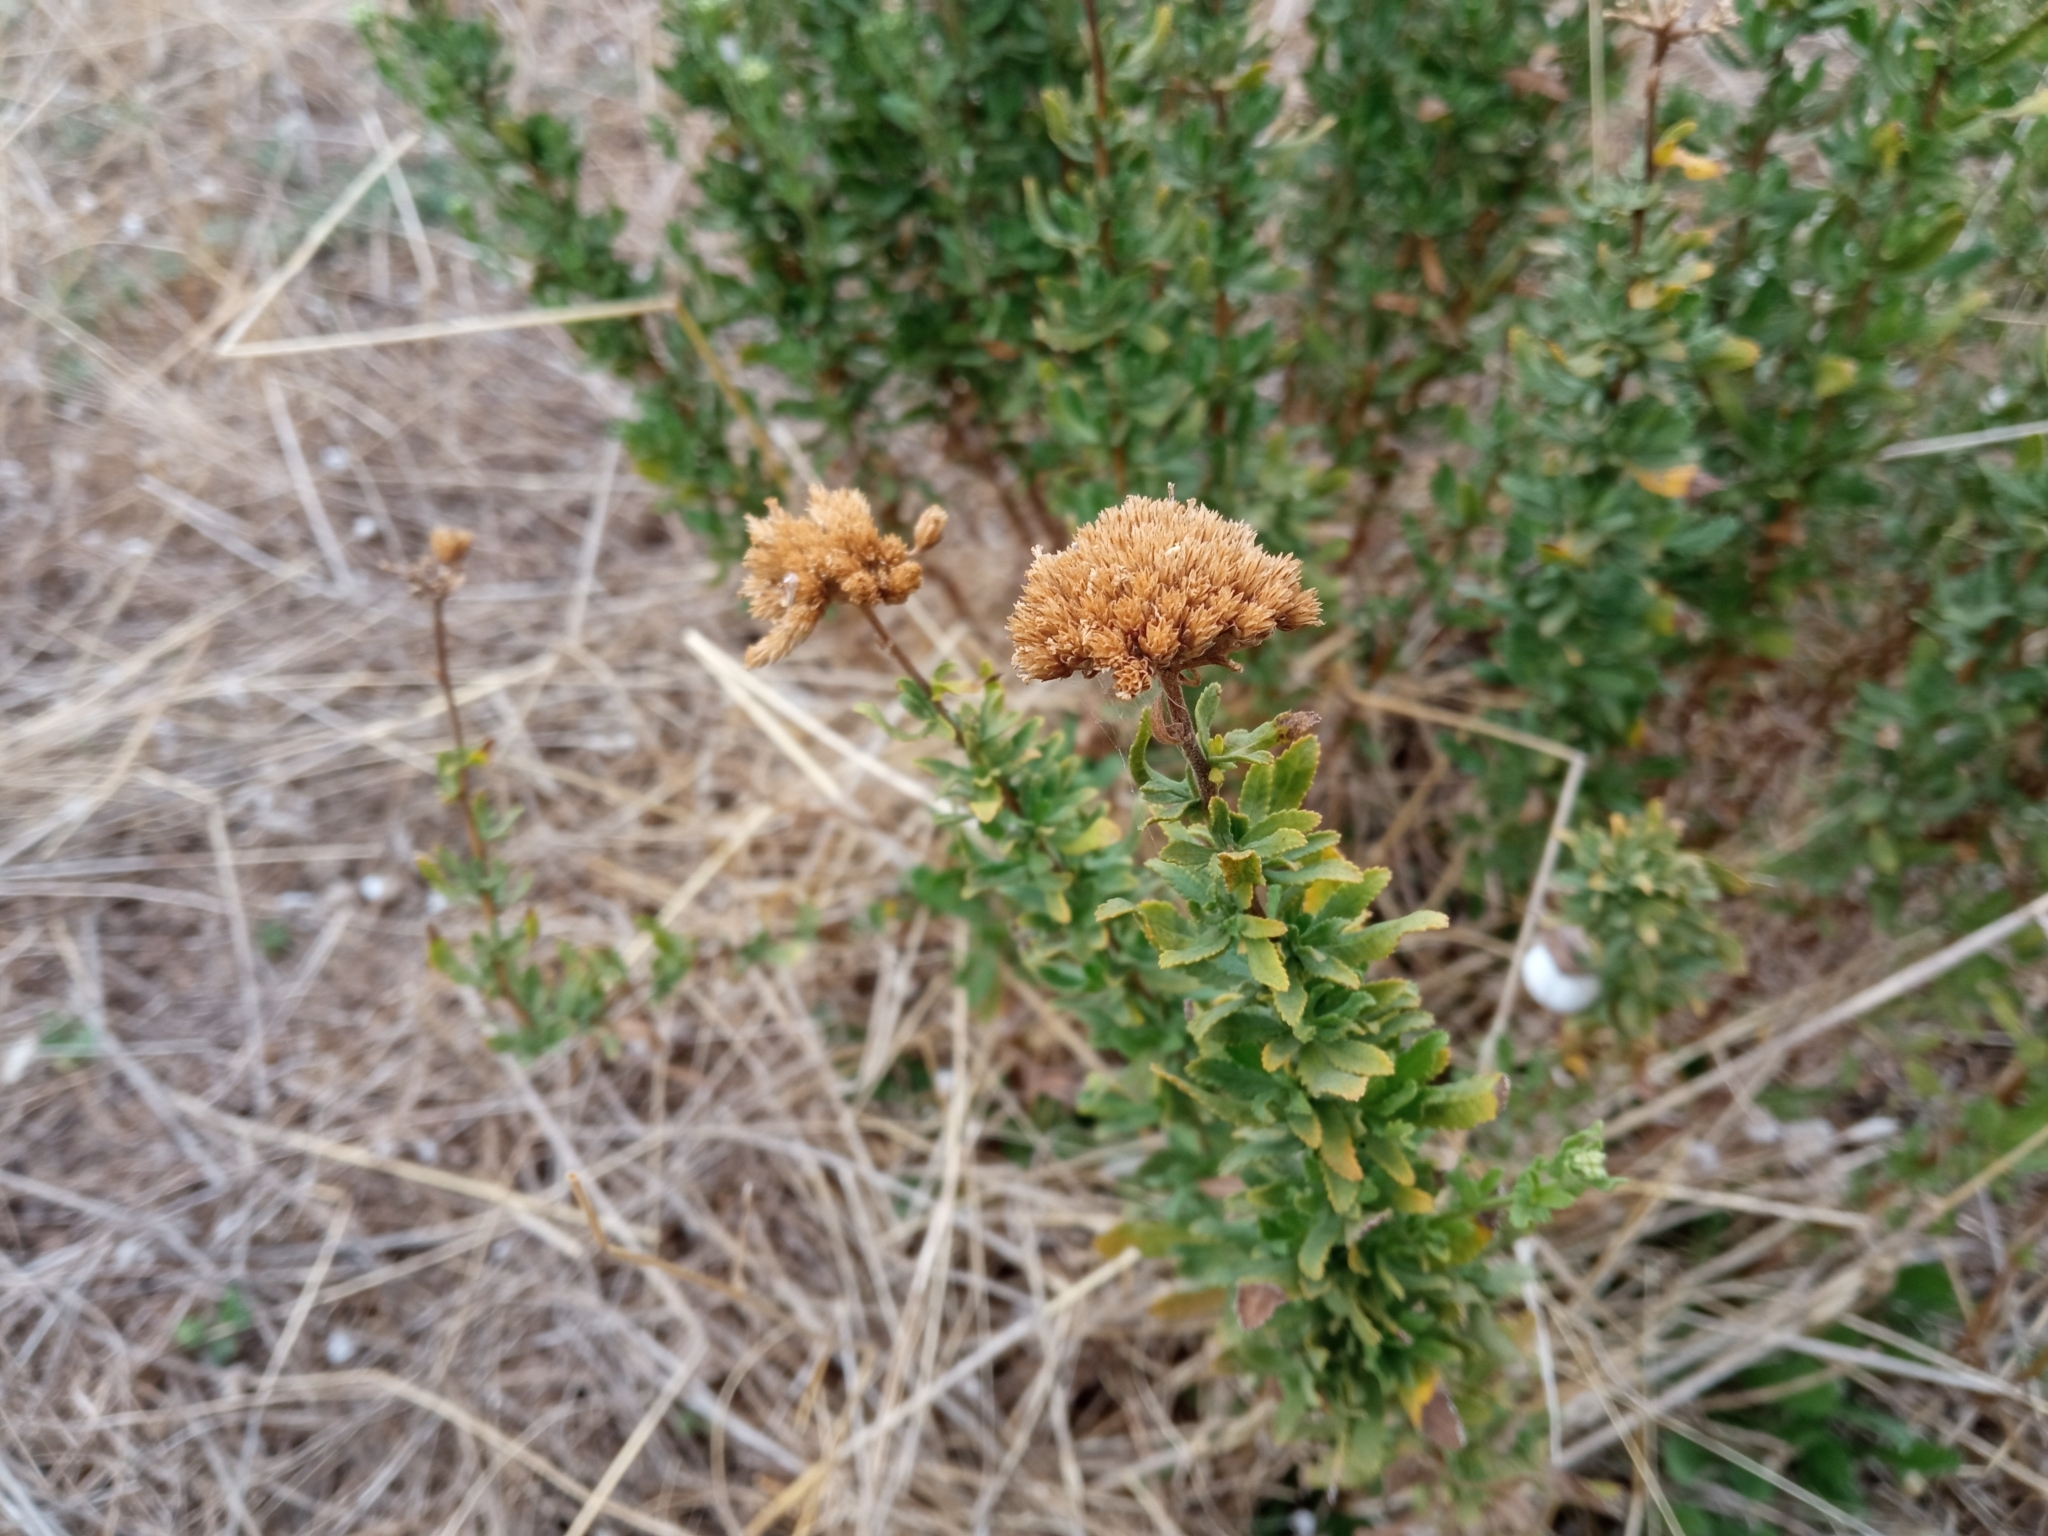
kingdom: Plantae
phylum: Tracheophyta
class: Magnoliopsida
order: Asterales
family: Asteraceae
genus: Achillea
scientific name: Achillea ageratum
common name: Sweet-nancy
